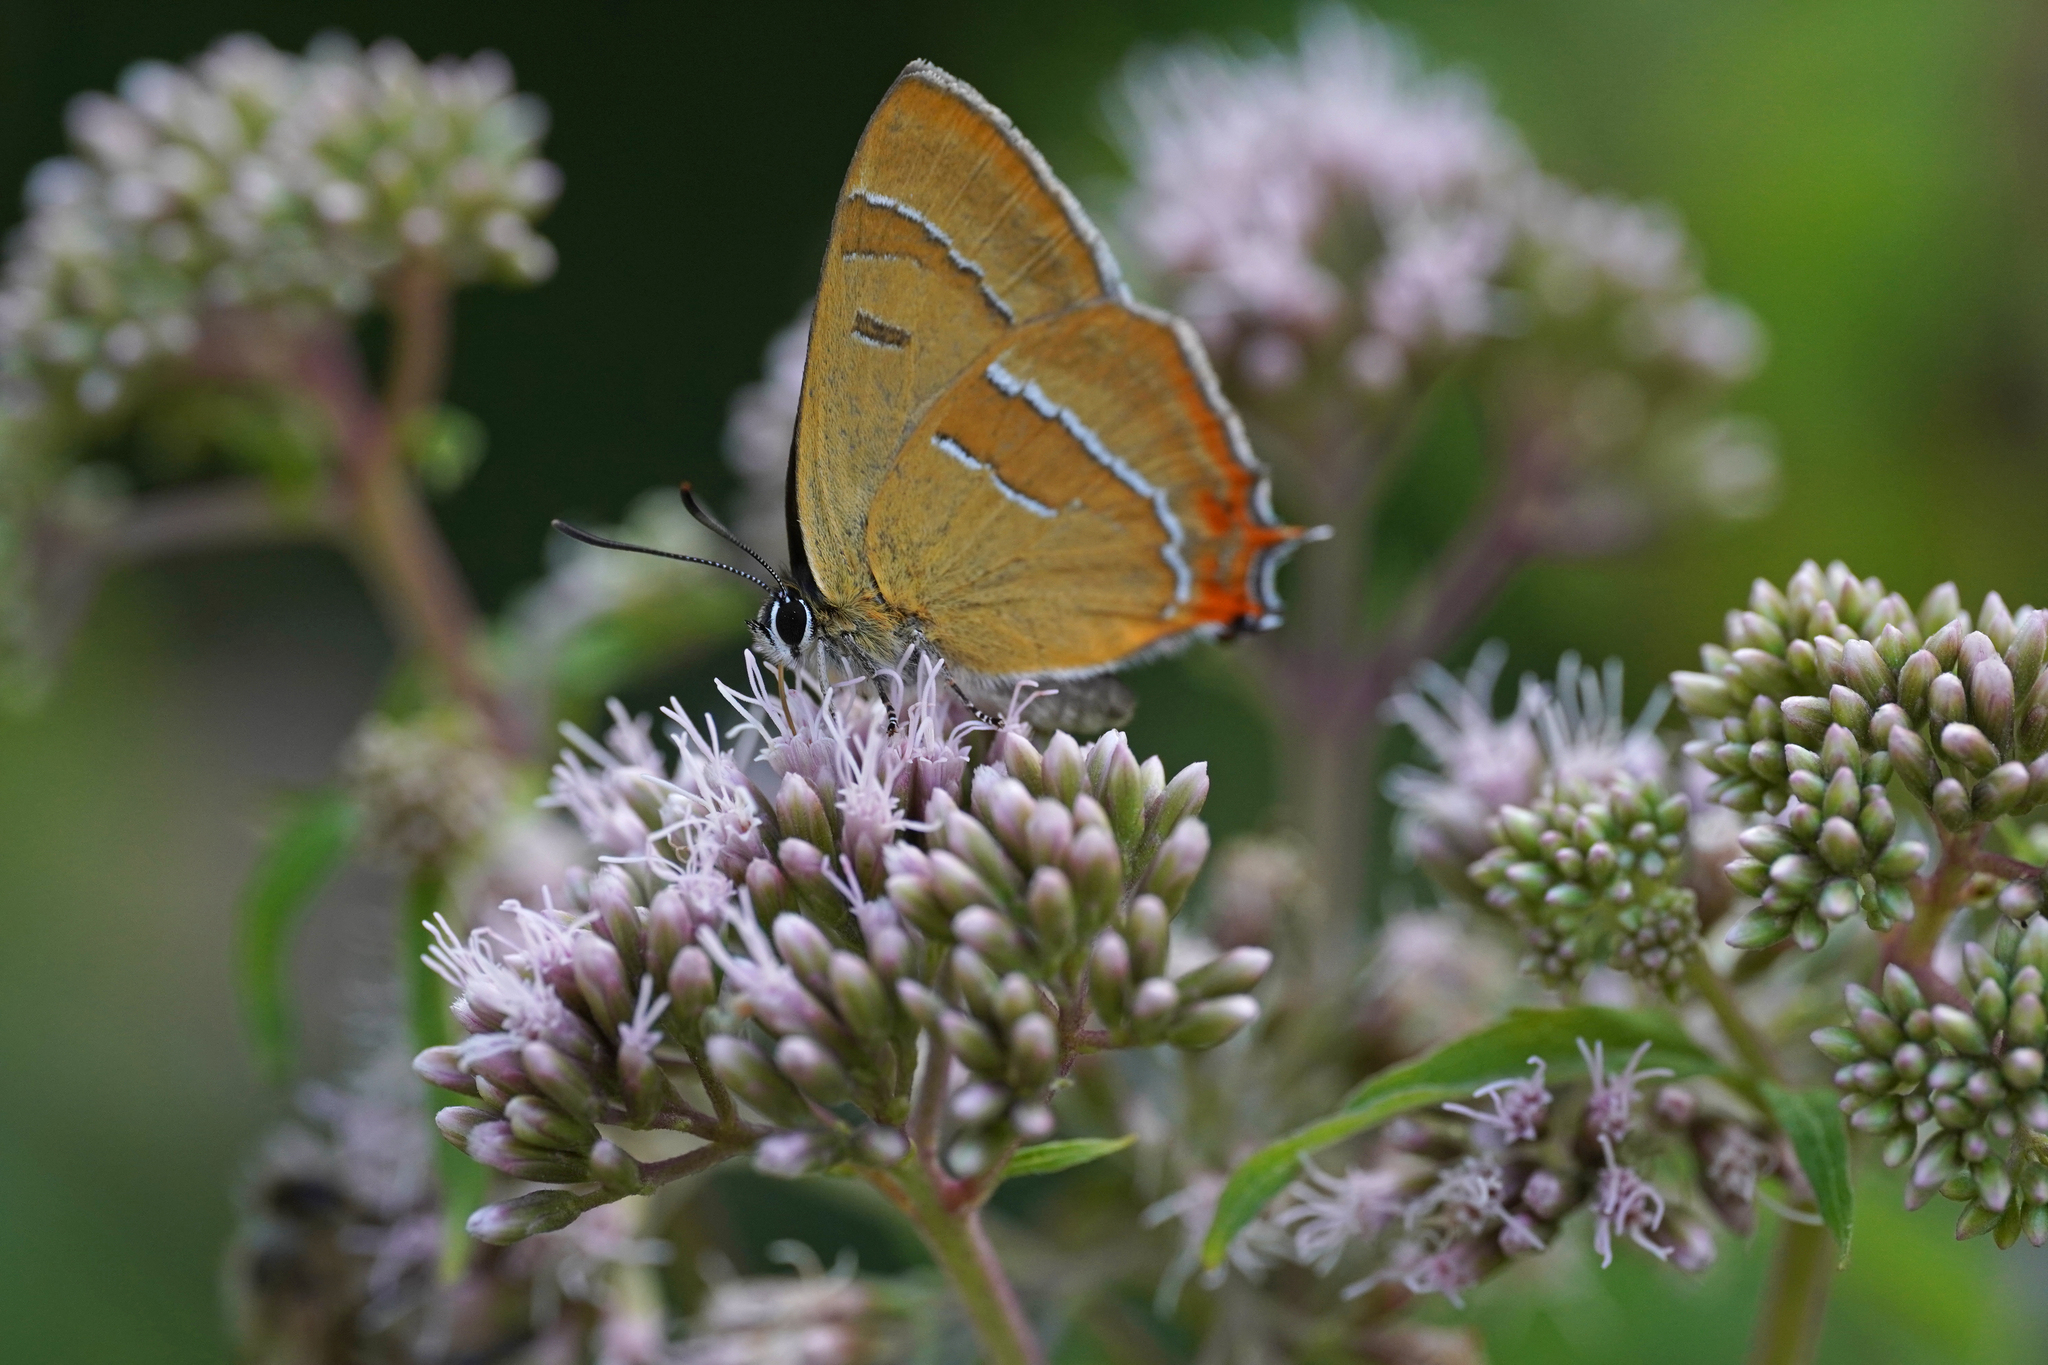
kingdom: Animalia
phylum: Arthropoda
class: Insecta
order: Lepidoptera
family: Lycaenidae
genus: Thecla
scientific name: Thecla betulae
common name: Brown hairstreak
